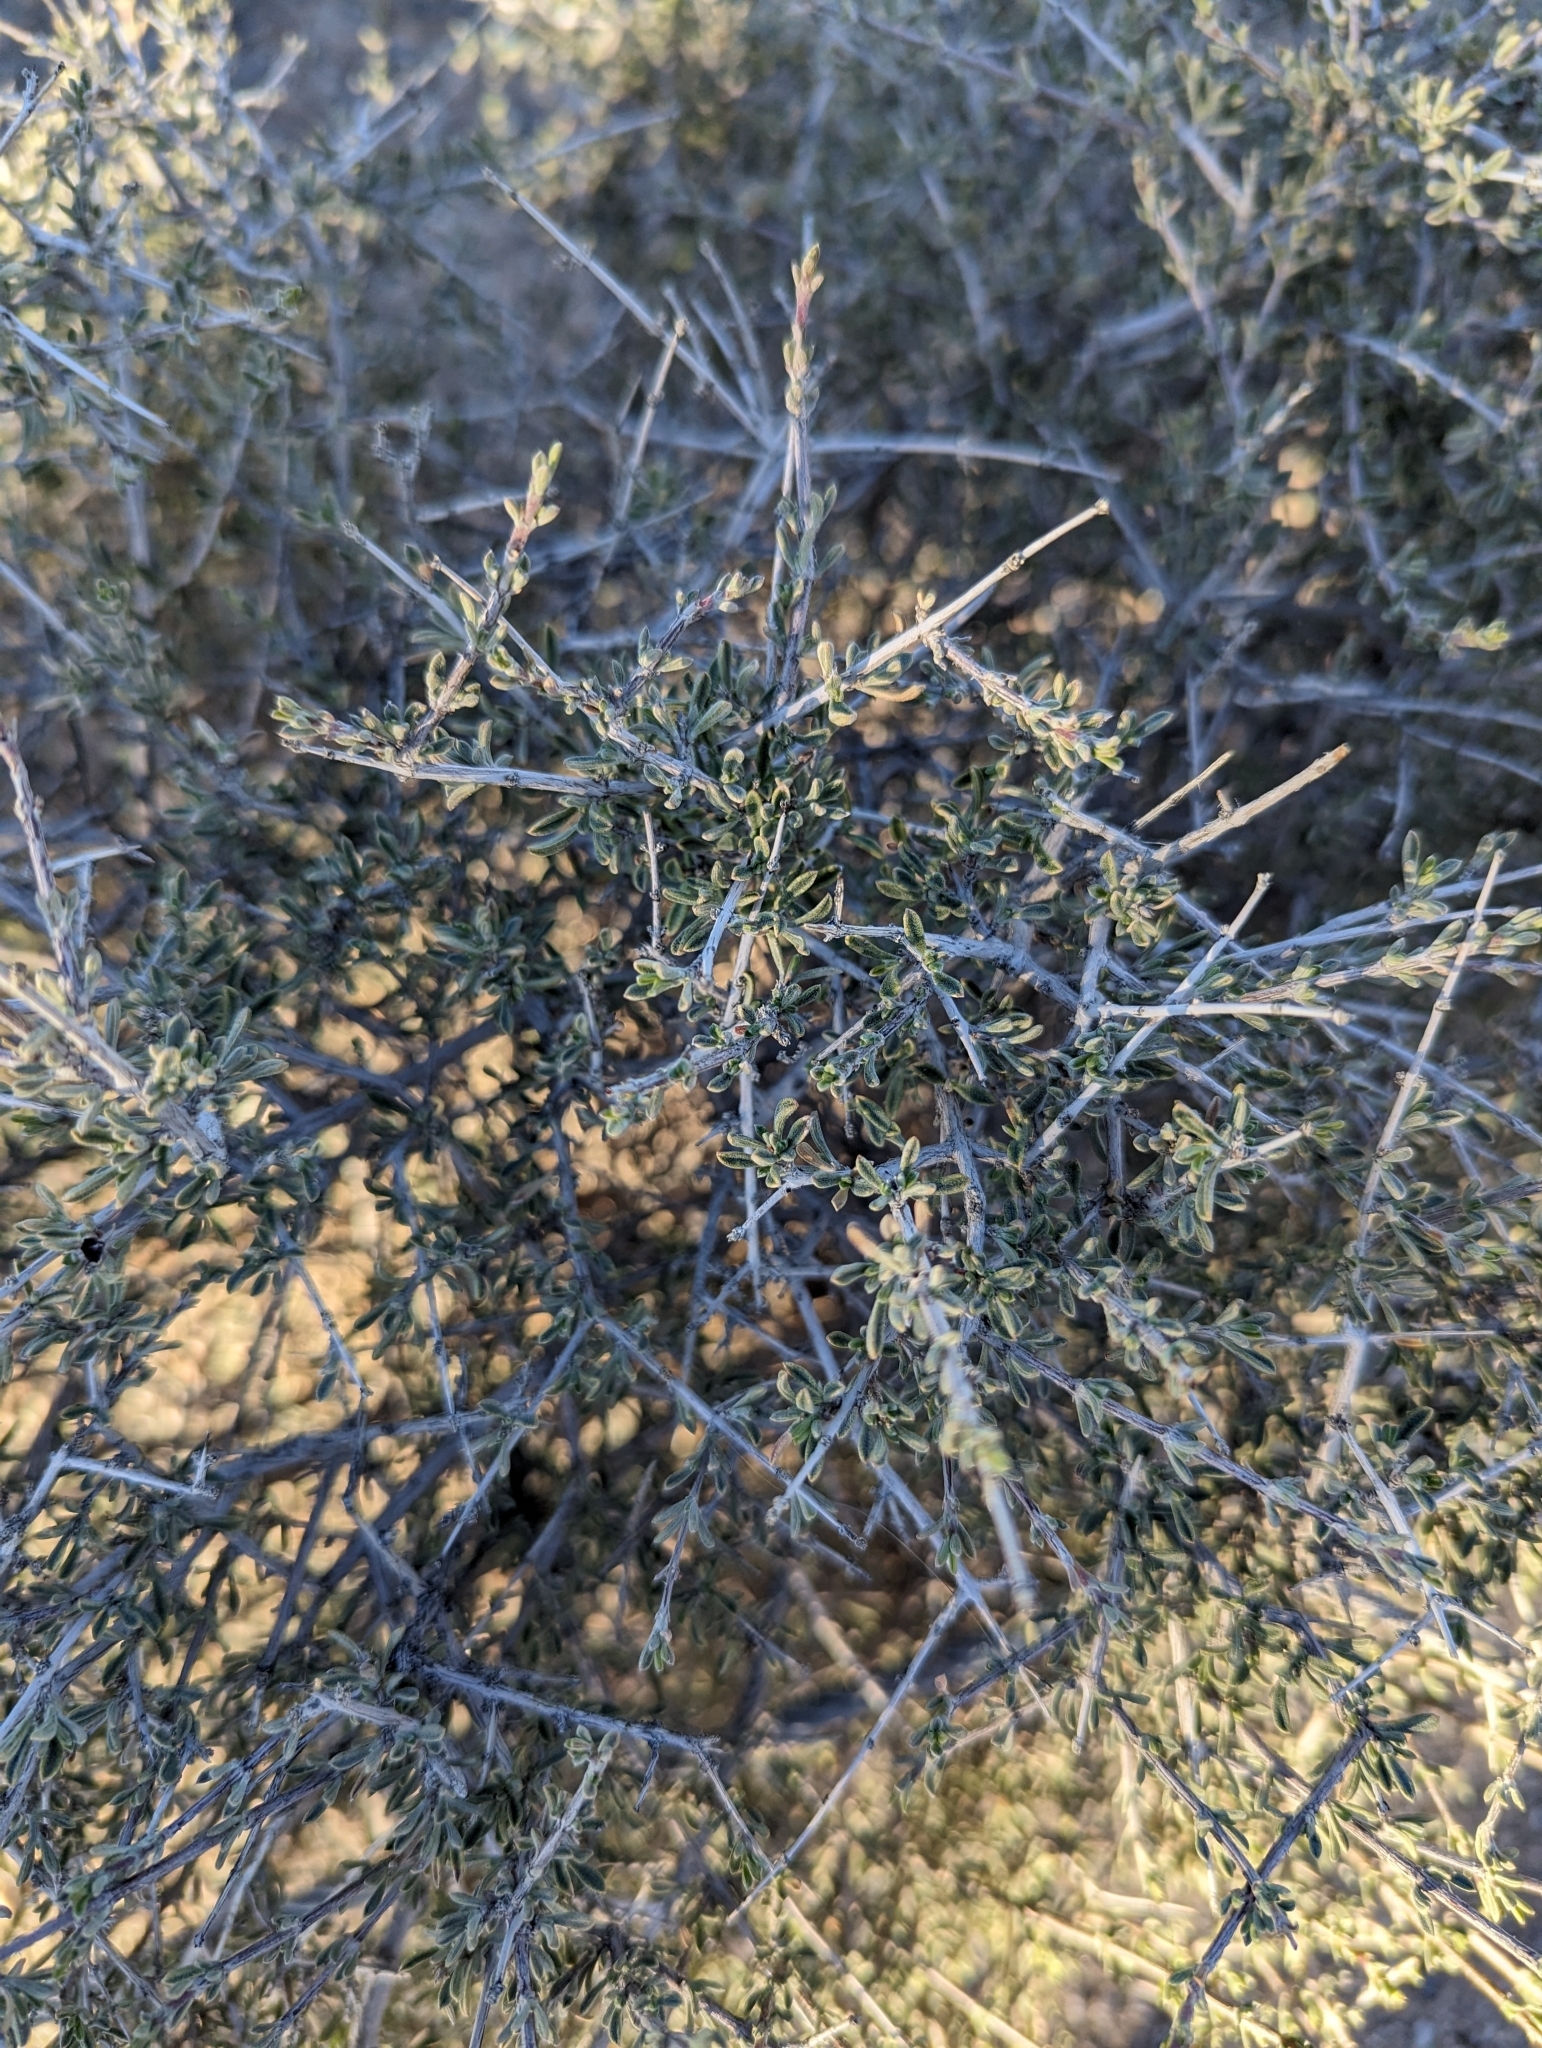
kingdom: Plantae
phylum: Tracheophyta
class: Magnoliopsida
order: Rosales
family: Rosaceae
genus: Coleogyne
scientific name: Coleogyne ramosissima
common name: Blackbrush
